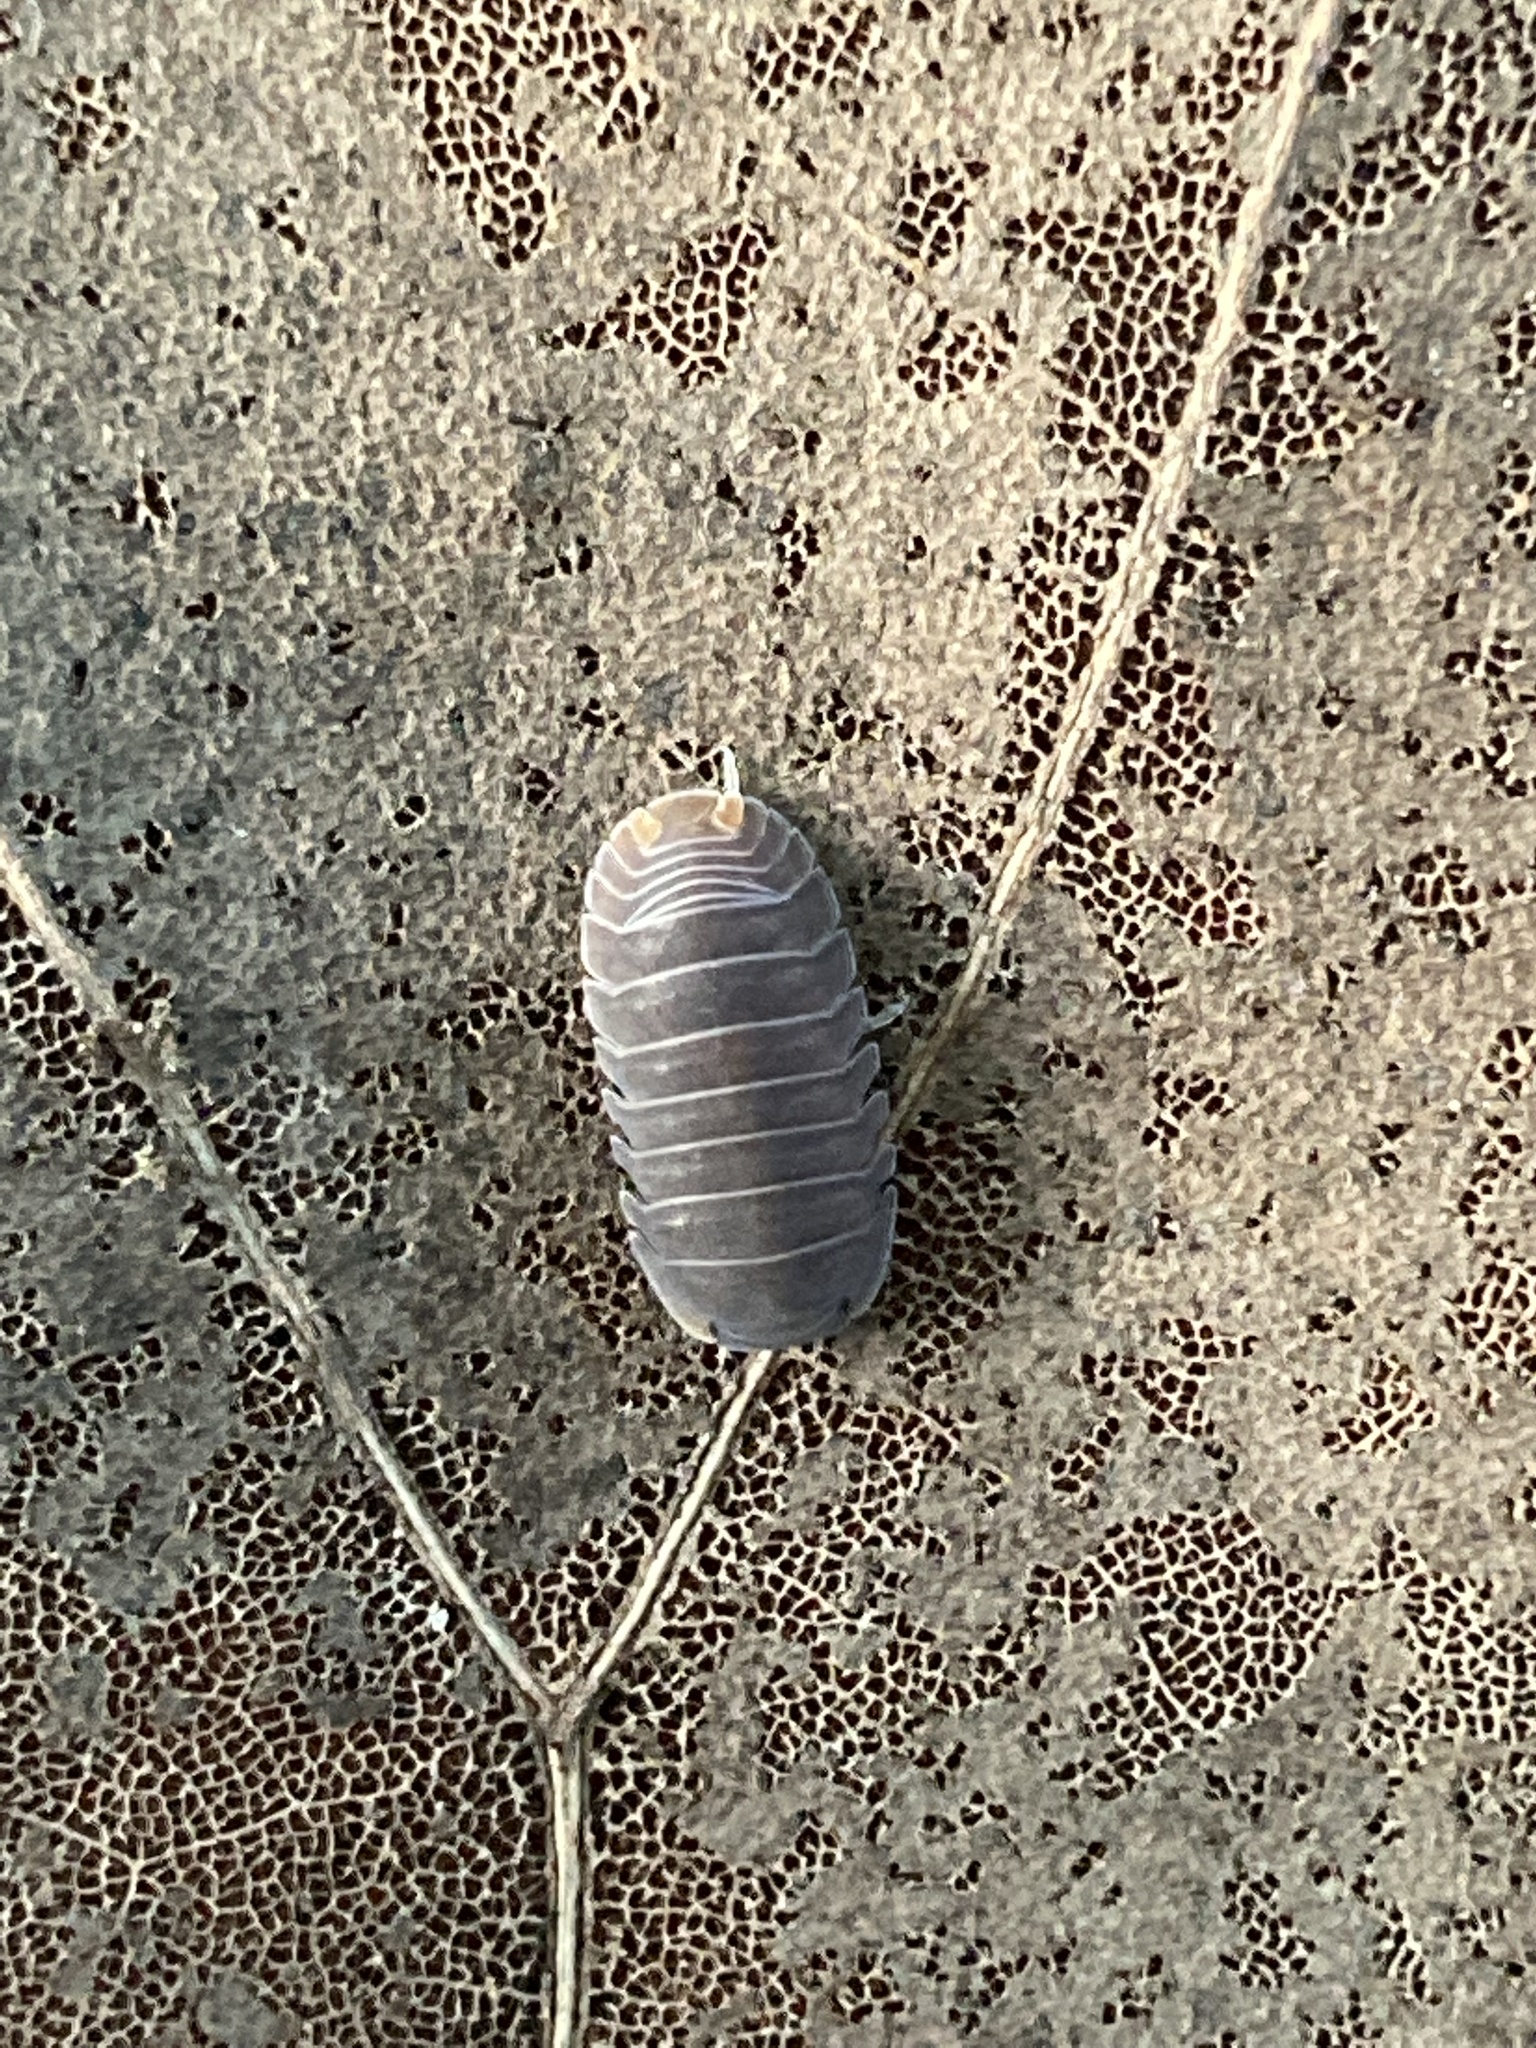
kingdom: Animalia
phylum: Arthropoda
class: Malacostraca
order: Isopoda
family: Armadillidae
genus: Cubaris
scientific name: Cubaris murina
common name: Pillbug
